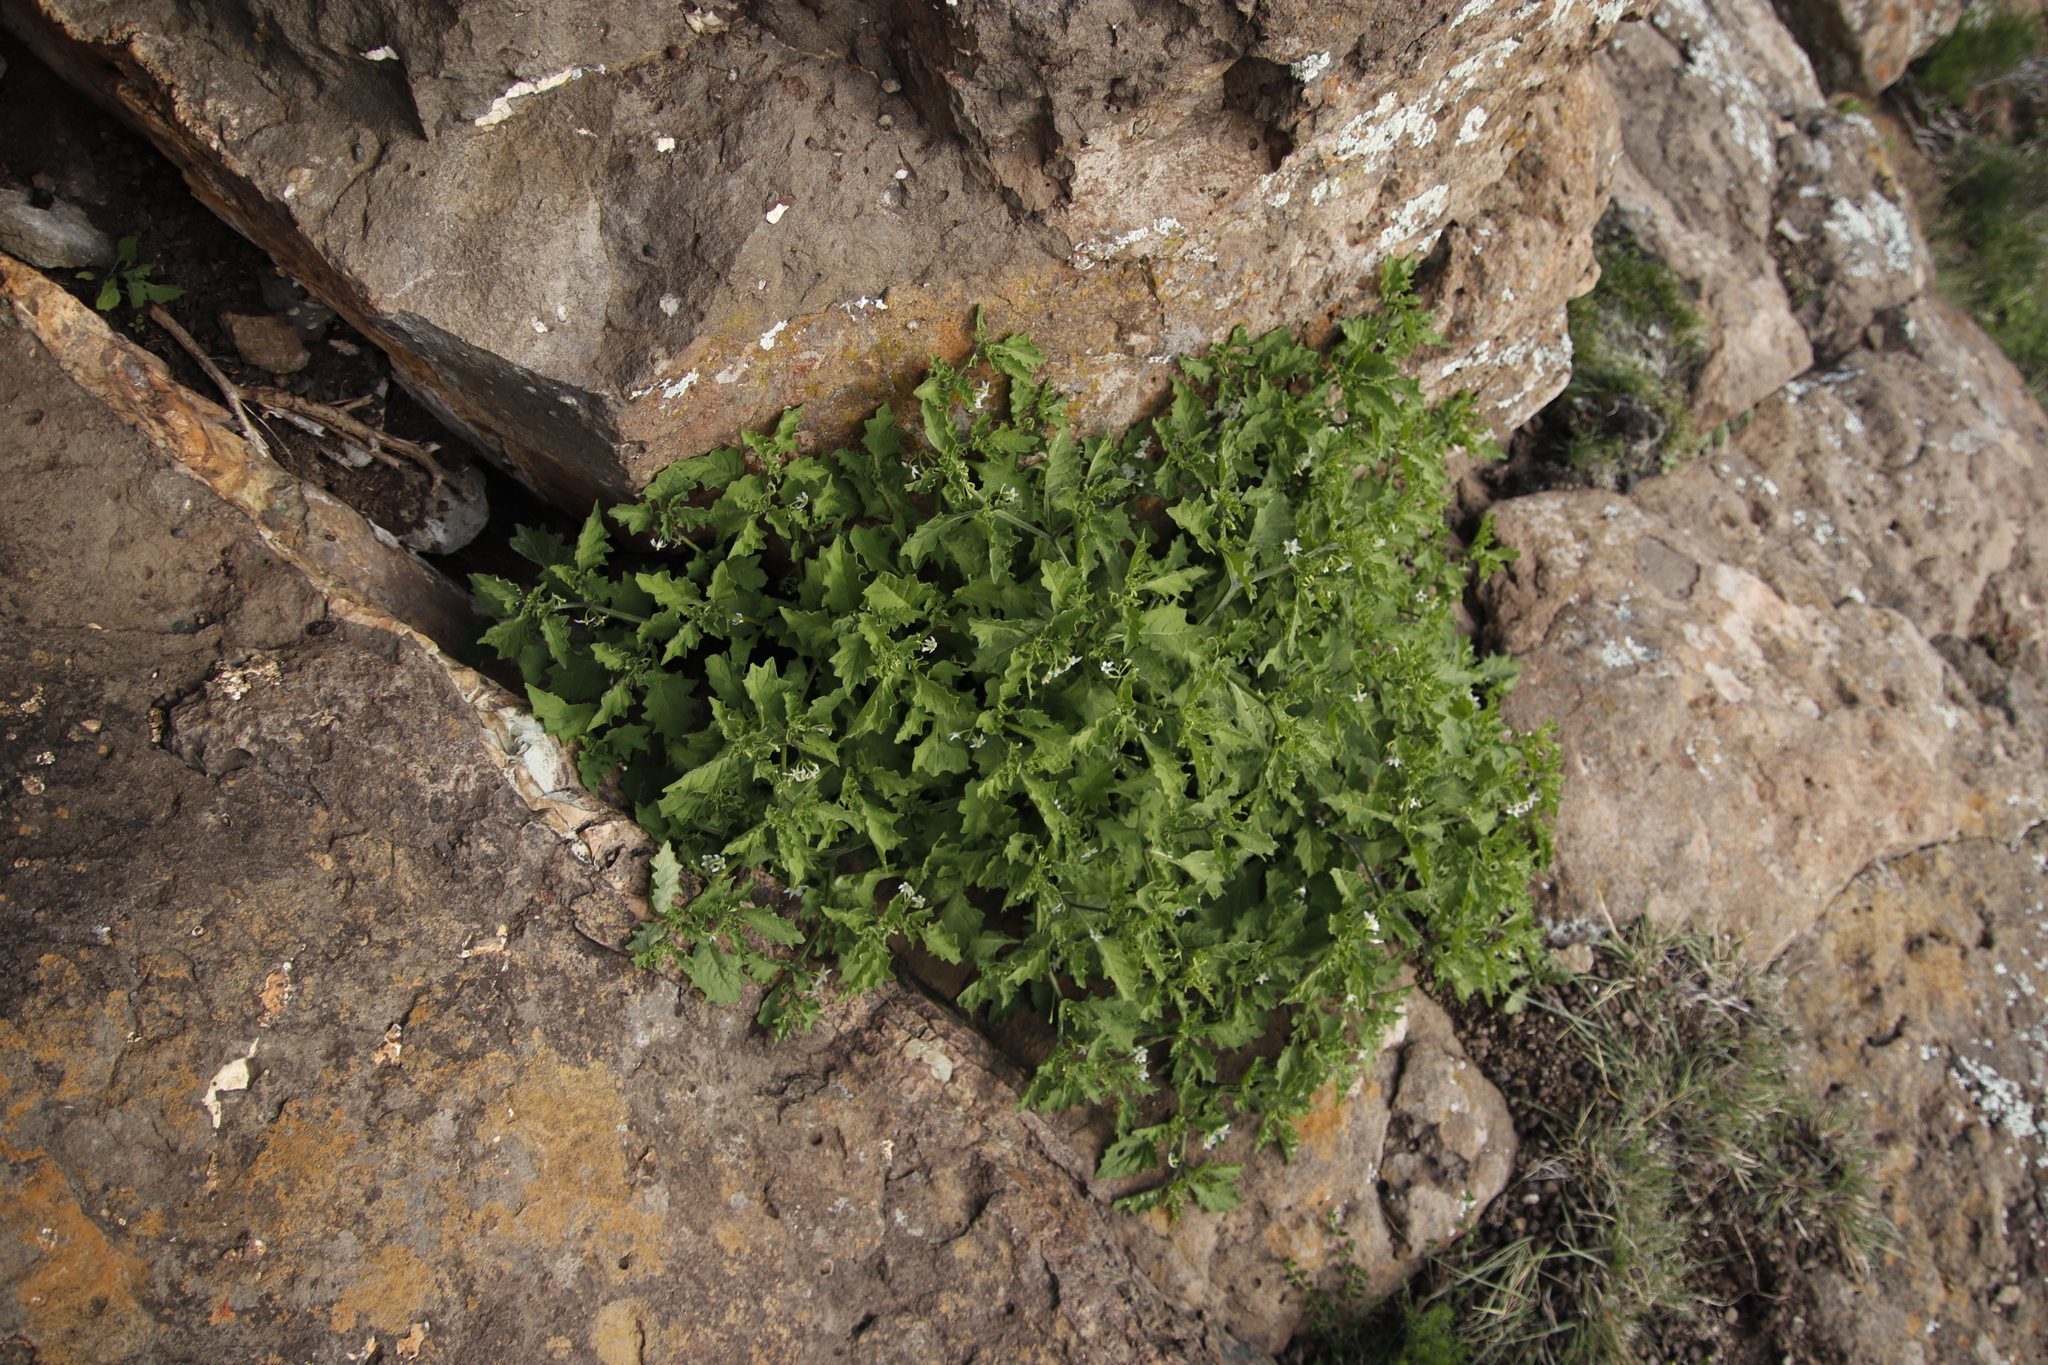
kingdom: Plantae
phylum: Tracheophyta
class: Magnoliopsida
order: Solanales
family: Solanaceae
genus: Solanum
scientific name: Solanum retroflexum
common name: Wonderberry
